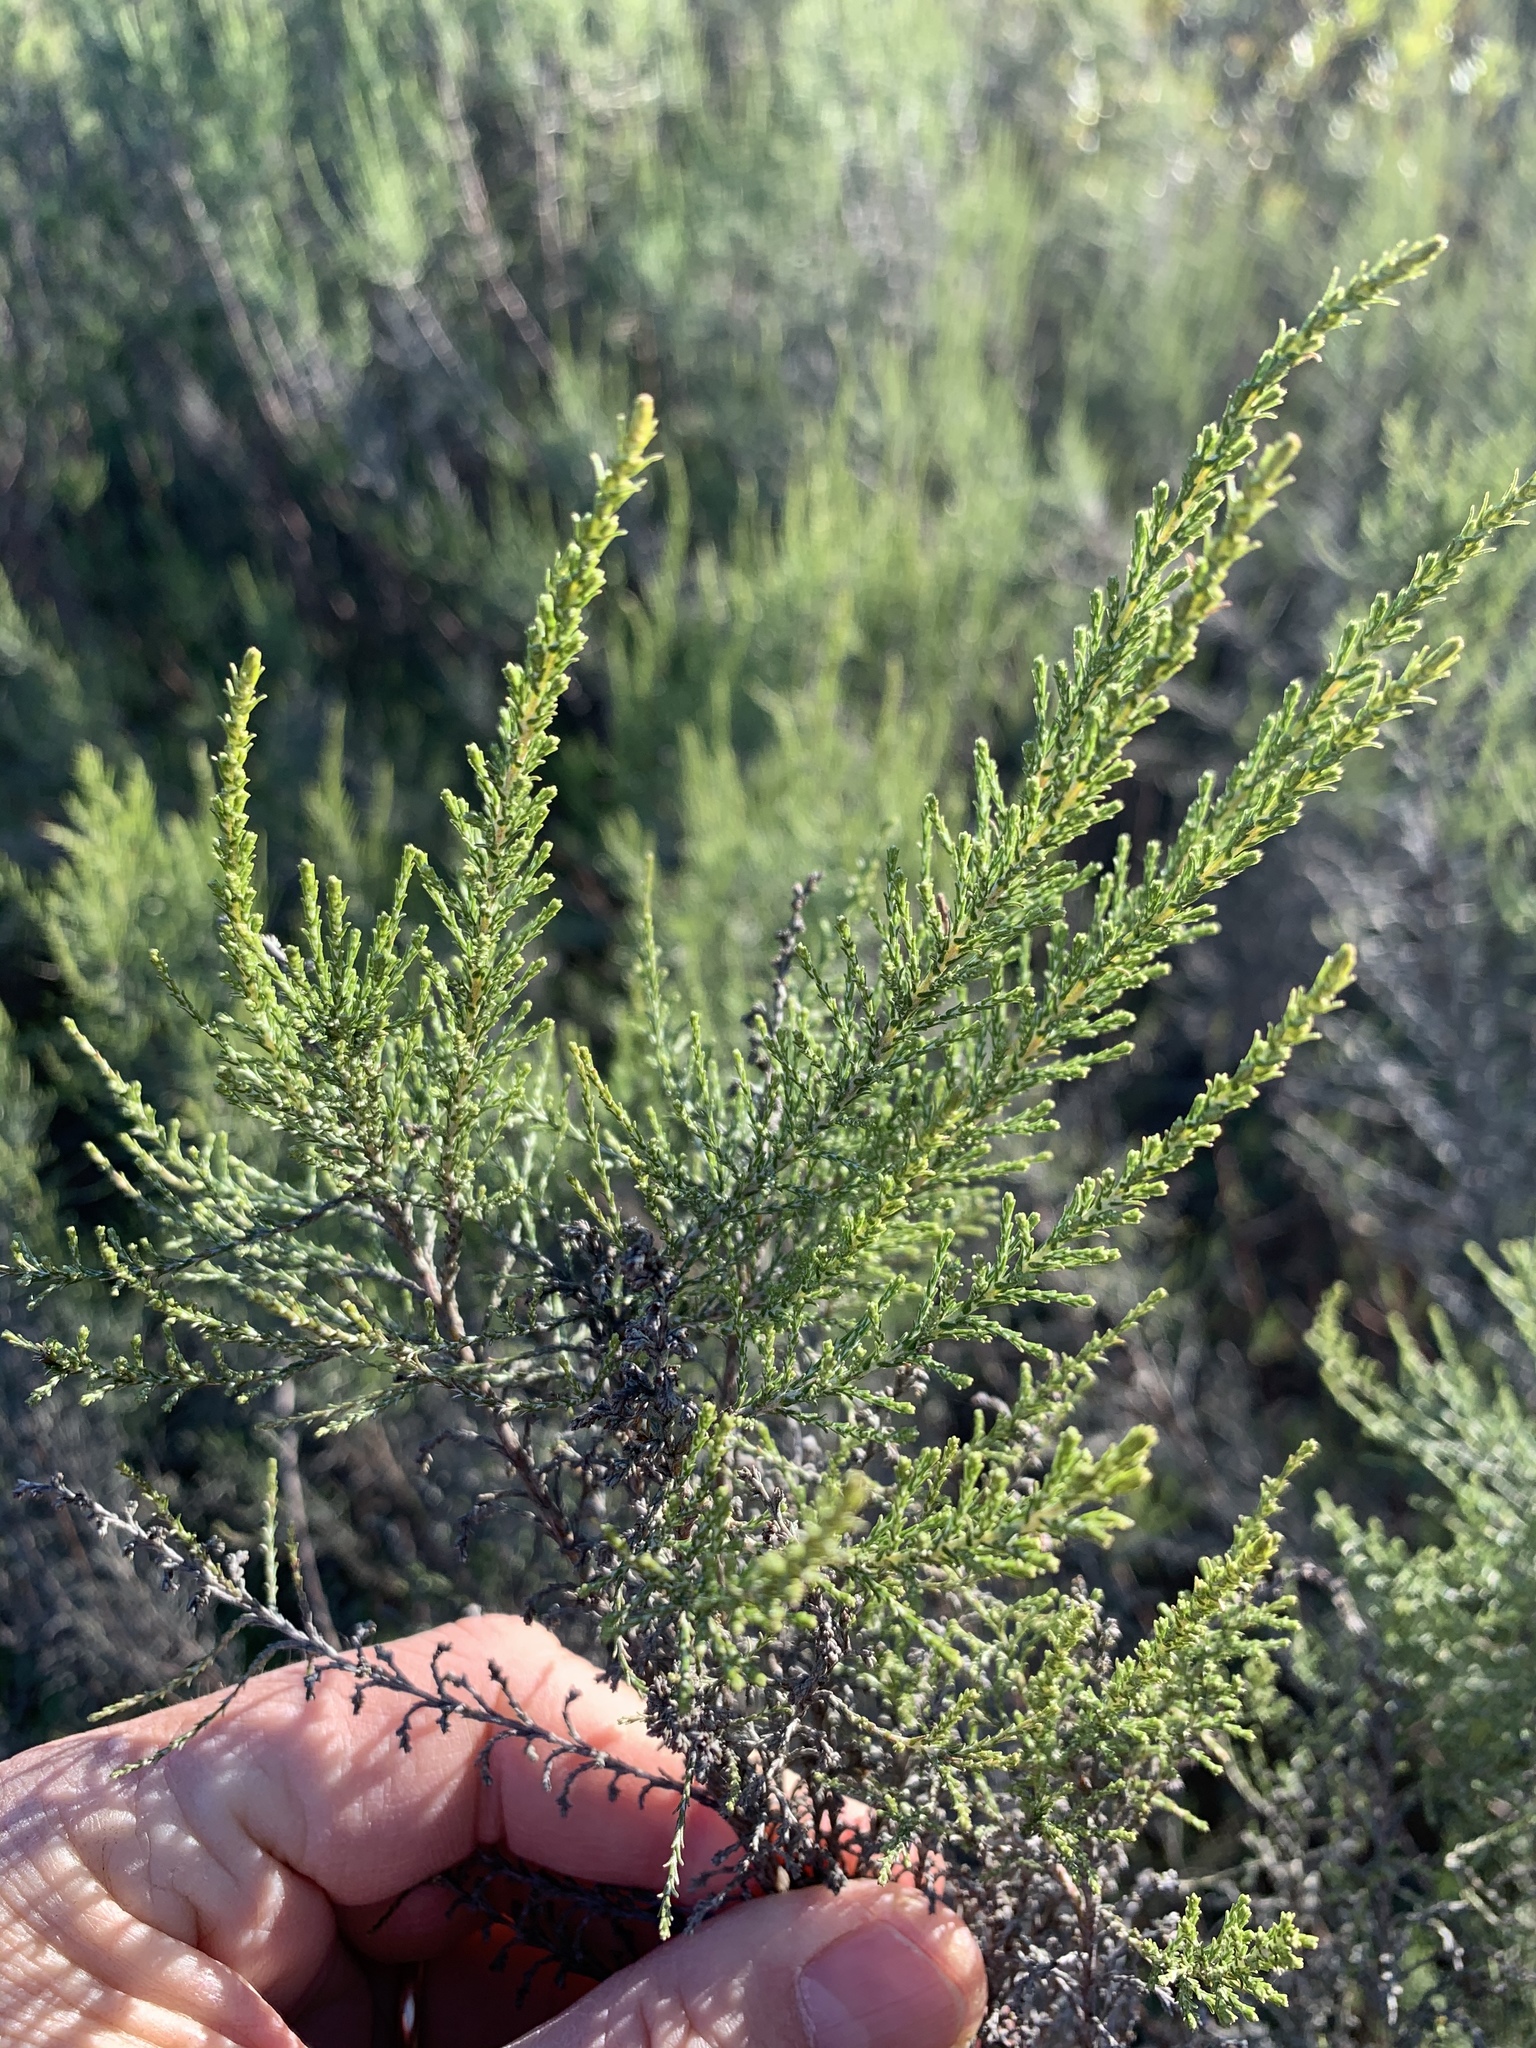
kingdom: Plantae
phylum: Tracheophyta
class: Magnoliopsida
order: Asterales
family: Asteraceae
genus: Dicerothamnus
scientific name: Dicerothamnus rhinocerotis
